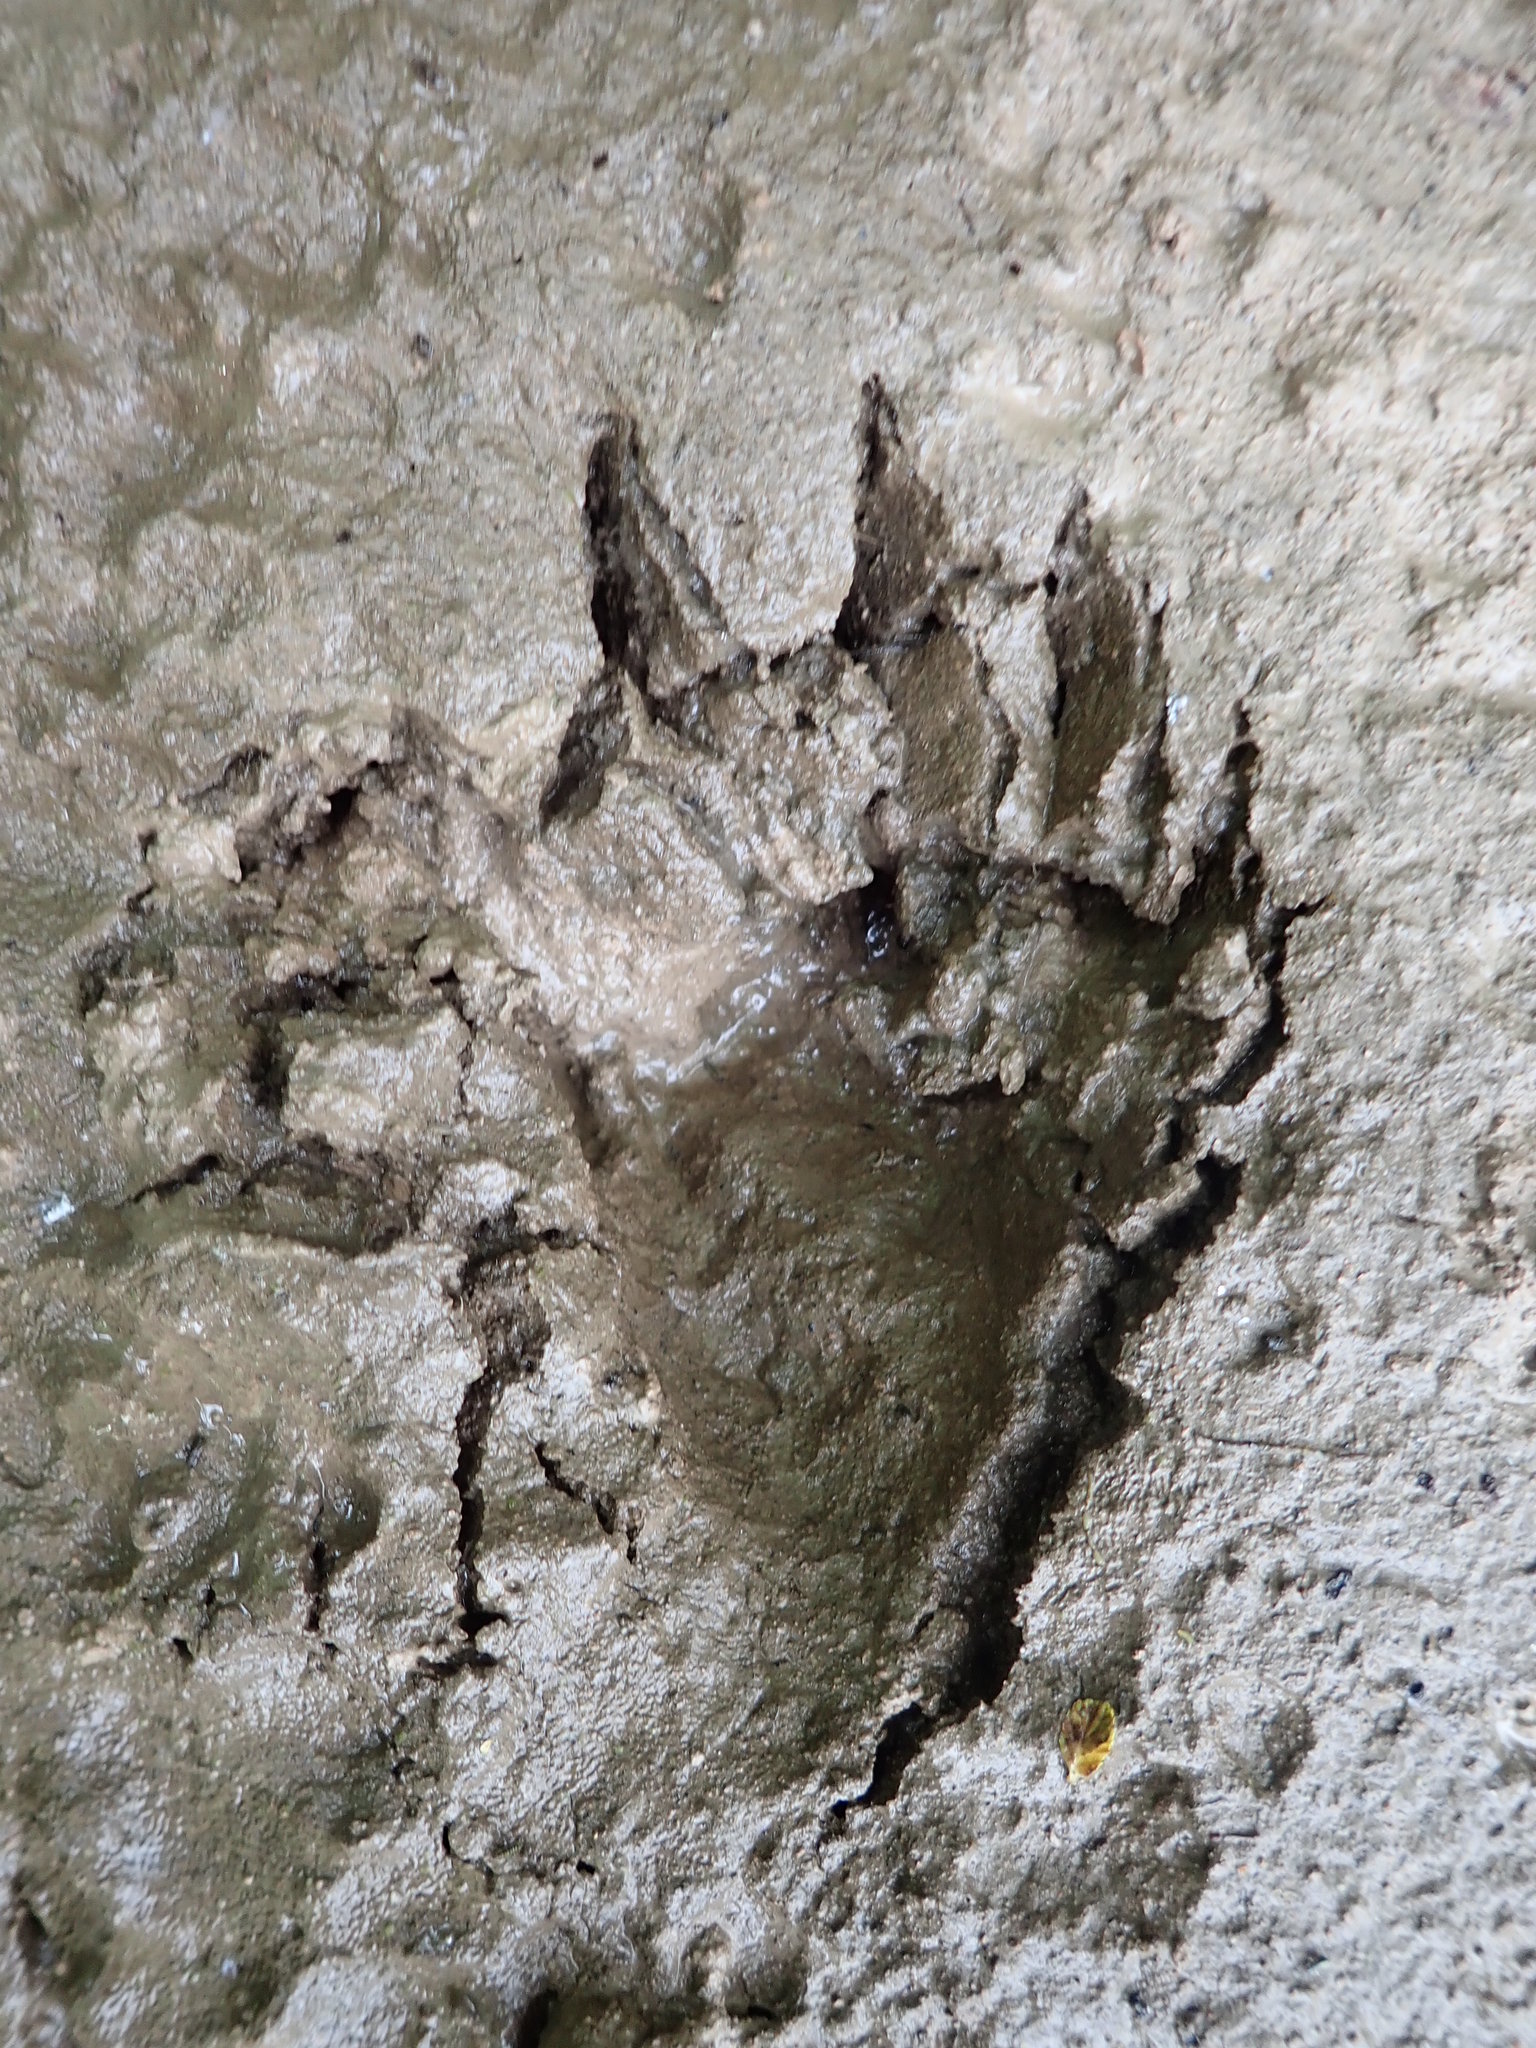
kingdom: Animalia
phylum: Chordata
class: Mammalia
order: Carnivora
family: Procyonidae
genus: Procyon
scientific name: Procyon lotor
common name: Raccoon
